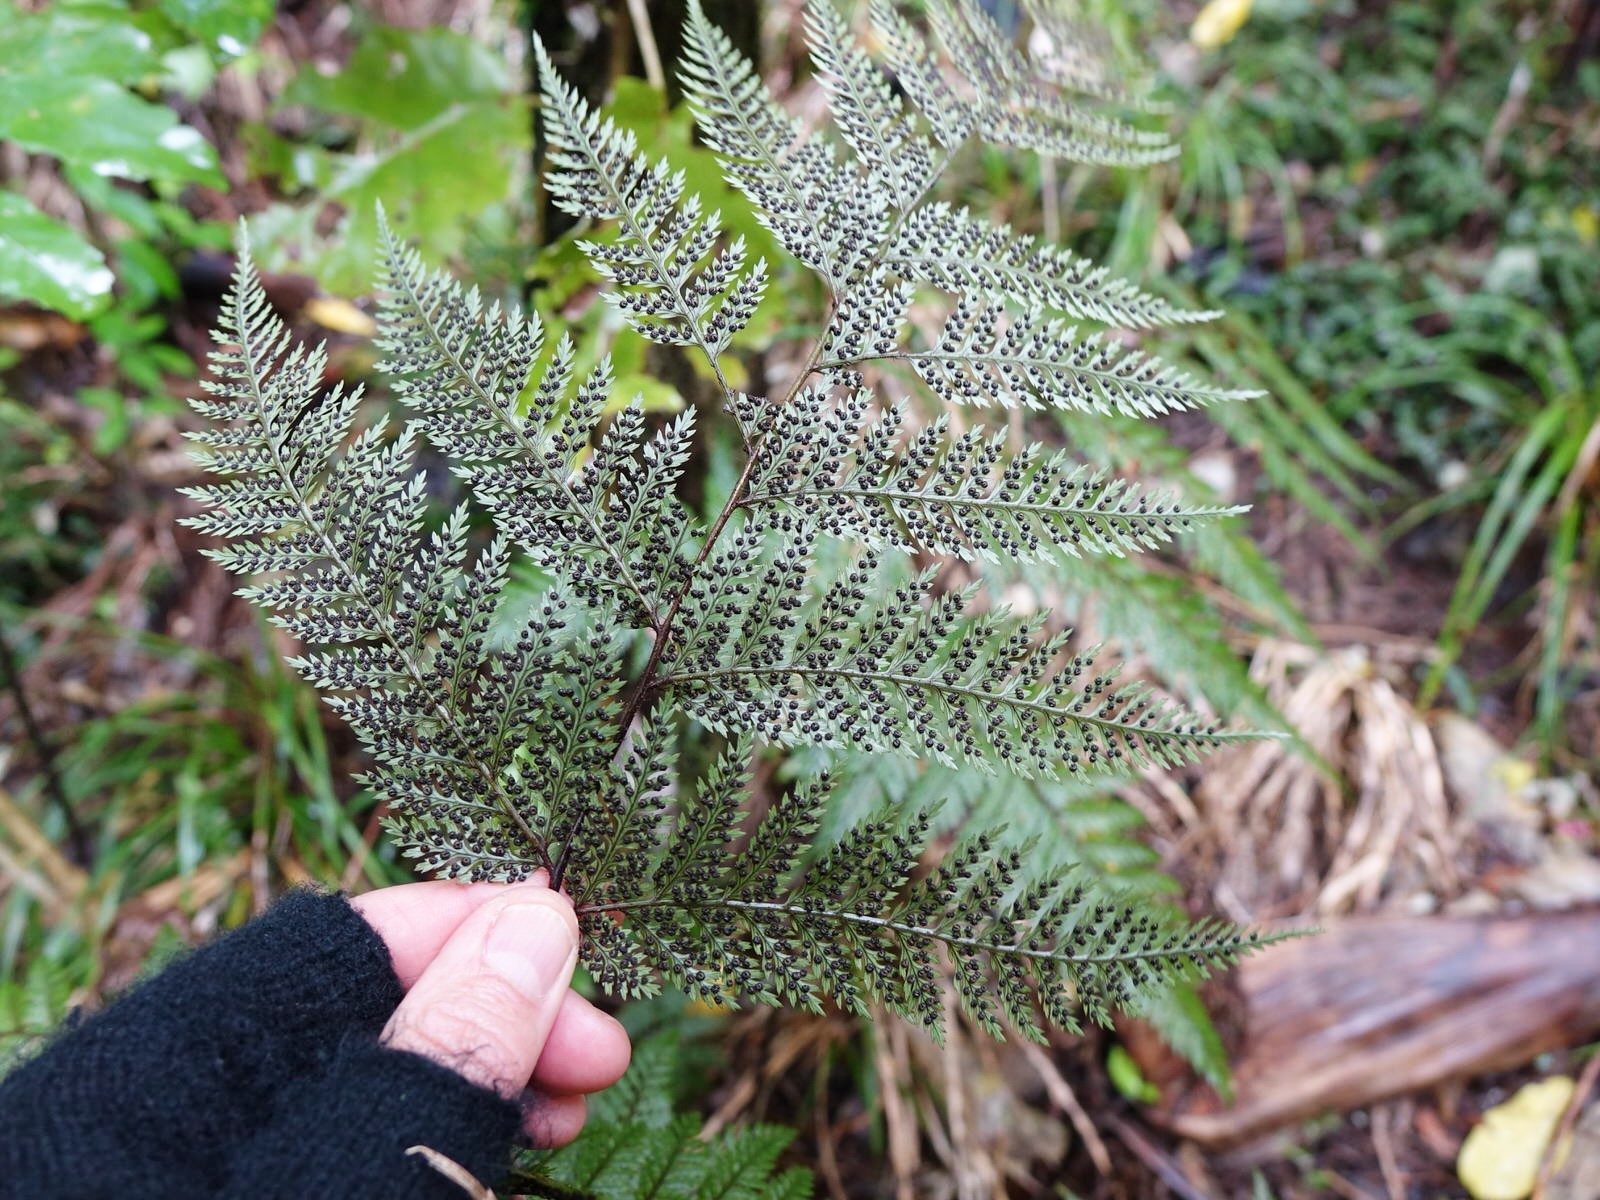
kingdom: Plantae
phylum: Tracheophyta
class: Polypodiopsida
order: Polypodiales
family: Dryopteridaceae
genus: Lastreopsis
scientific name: Lastreopsis hispida
